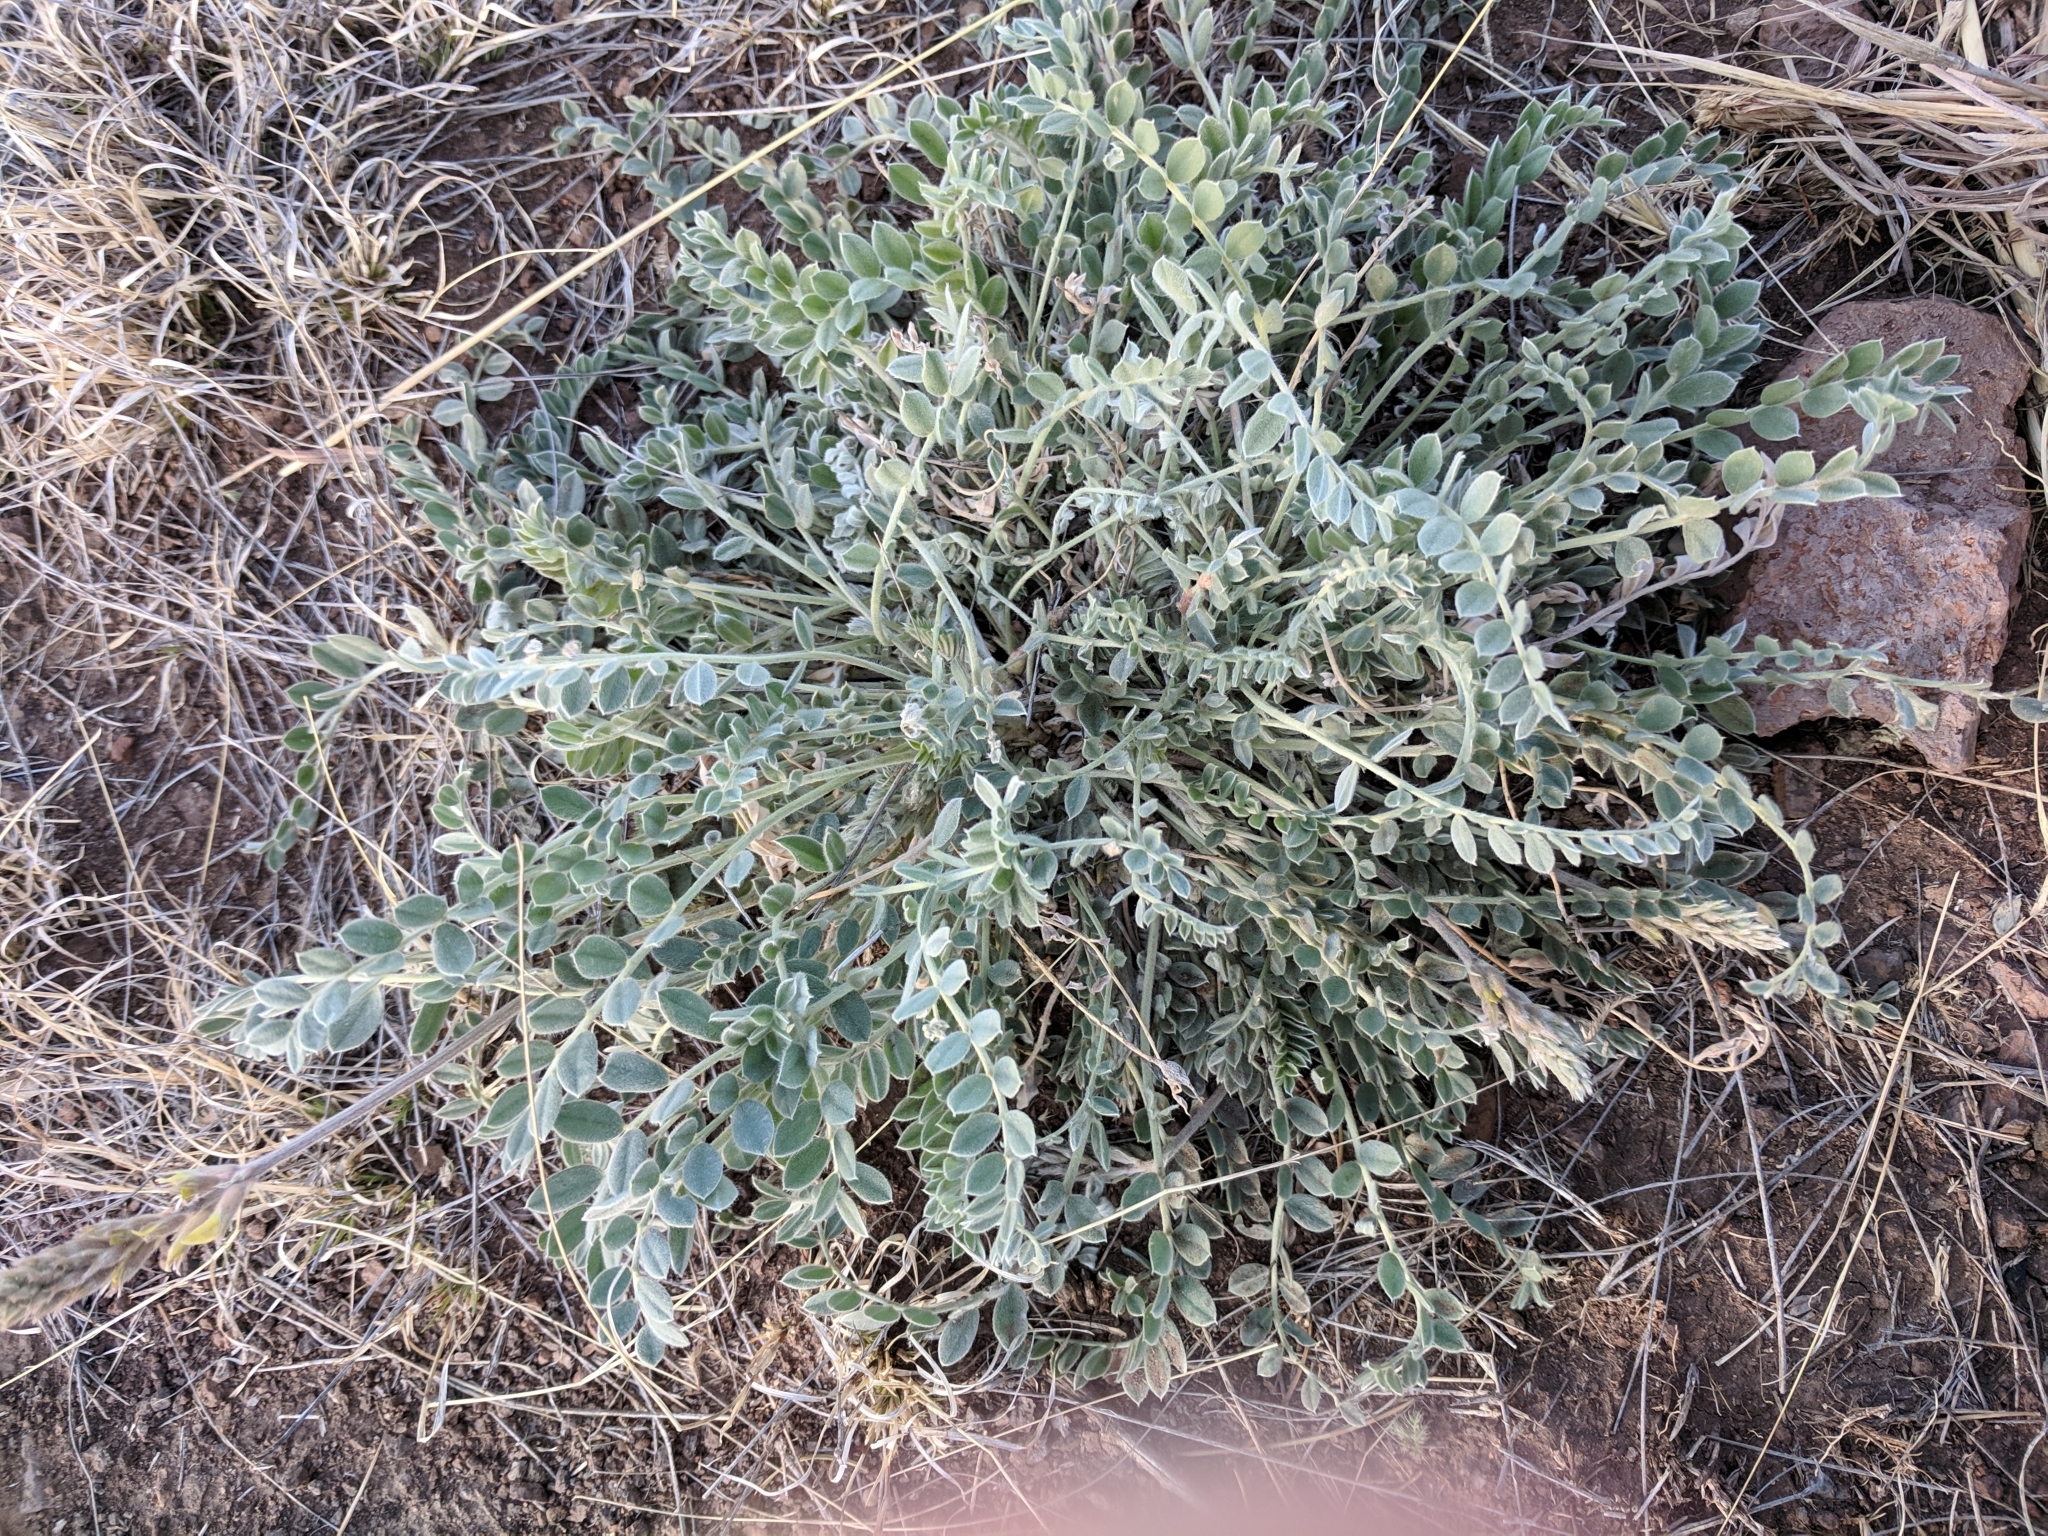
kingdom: Plantae
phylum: Tracheophyta
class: Magnoliopsida
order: Fabales
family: Fabaceae
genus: Astragalus
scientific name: Astragalus mollissimus
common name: Woolly locoweed
